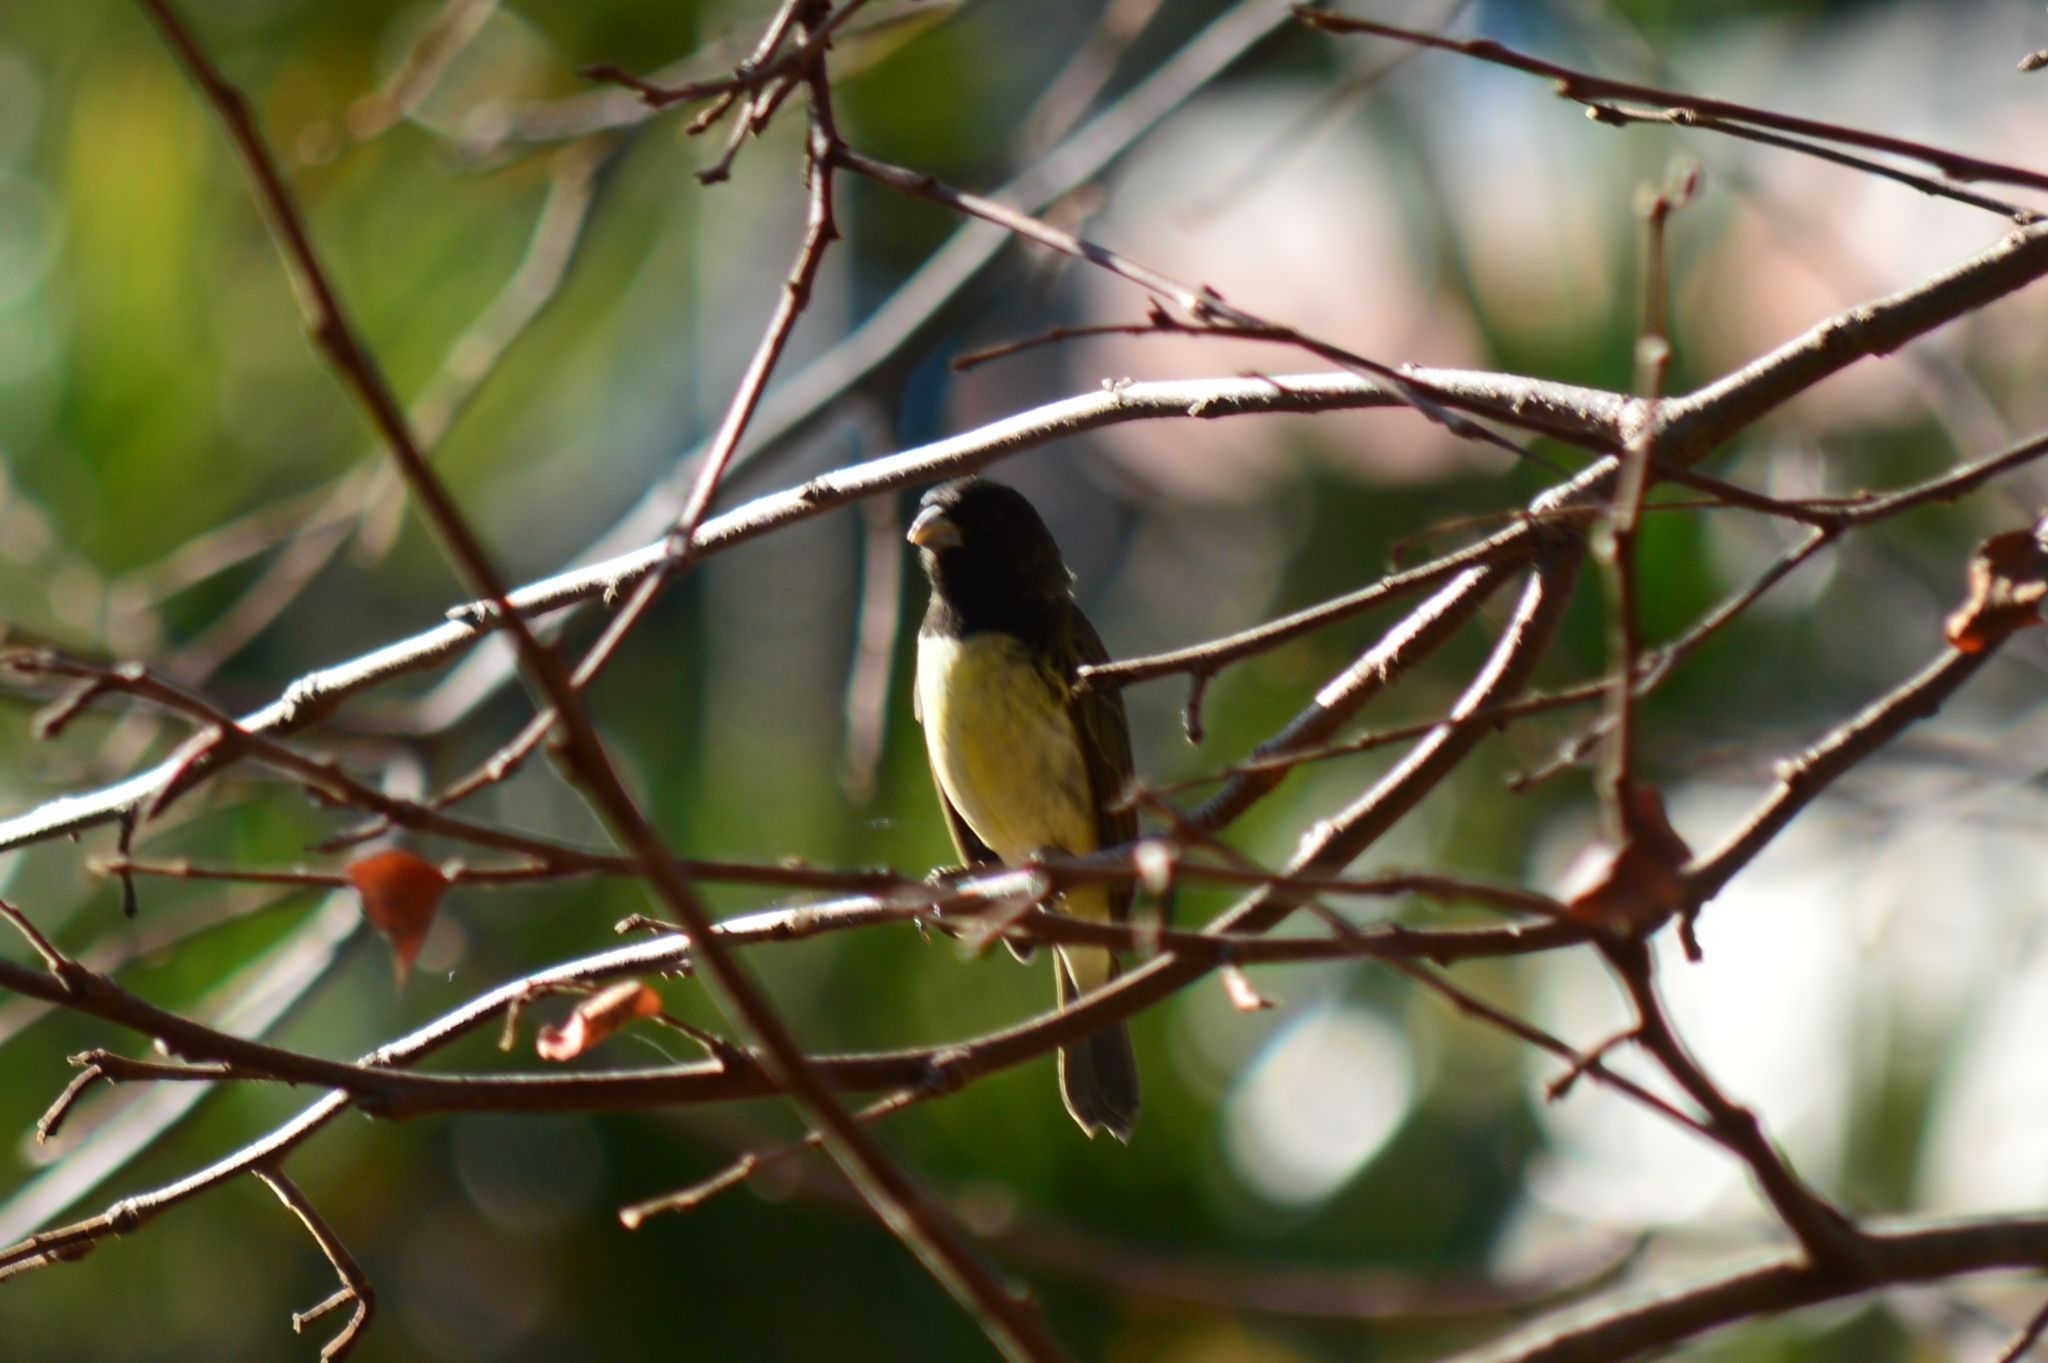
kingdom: Animalia
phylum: Chordata
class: Aves
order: Passeriformes
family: Thraupidae
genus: Sporophila
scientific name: Sporophila nigricollis
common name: Yellow-bellied seedeater
